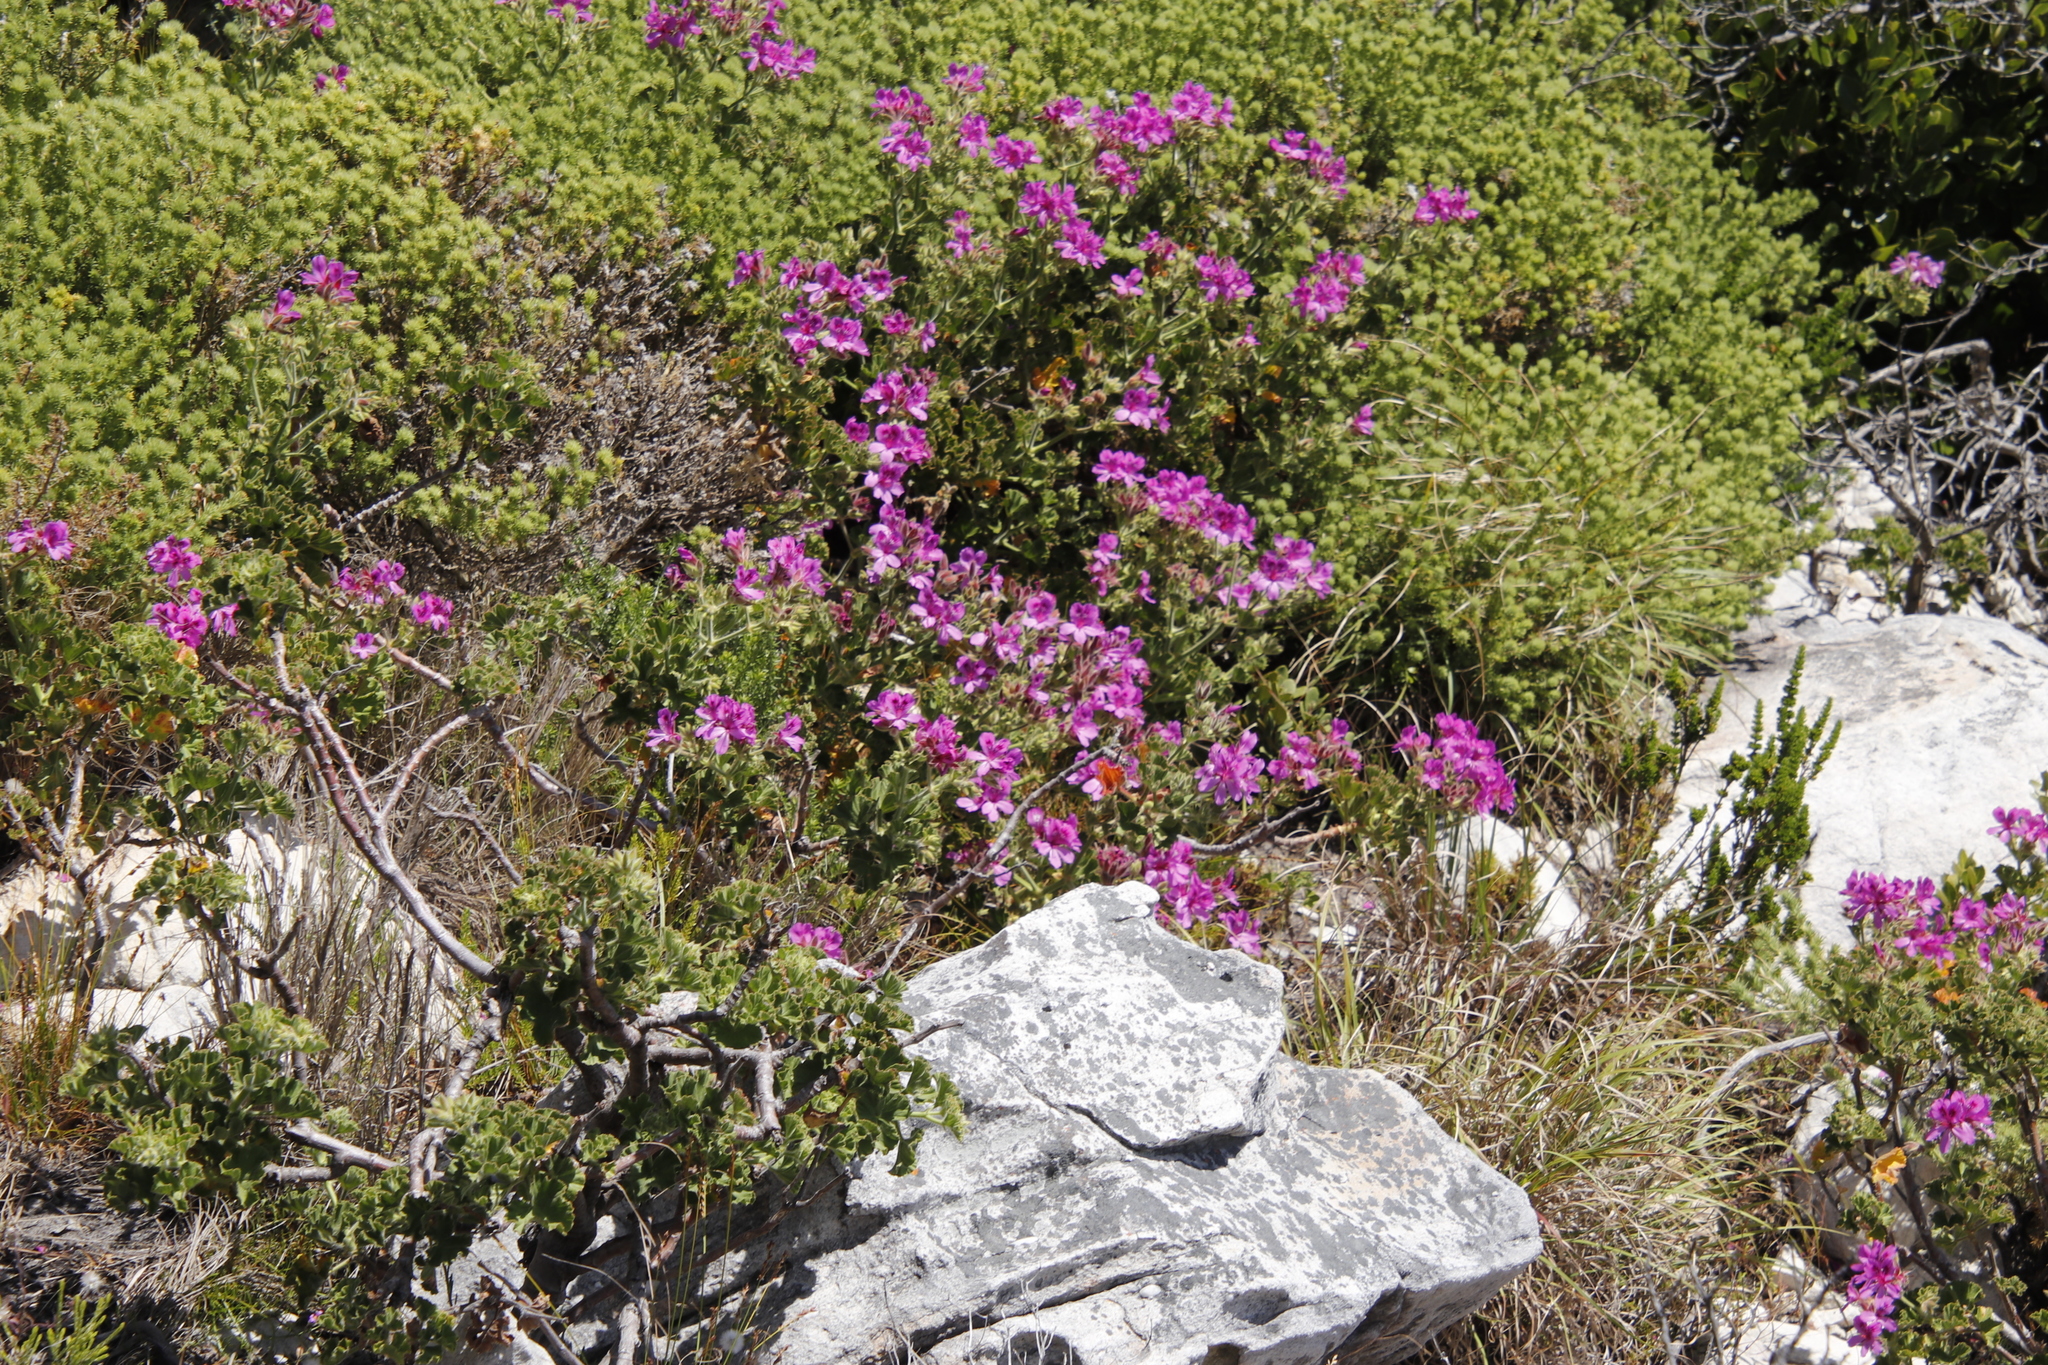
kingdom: Plantae
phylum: Tracheophyta
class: Magnoliopsida
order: Geraniales
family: Geraniaceae
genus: Pelargonium
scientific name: Pelargonium cucullatum
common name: Tree pelargonium
